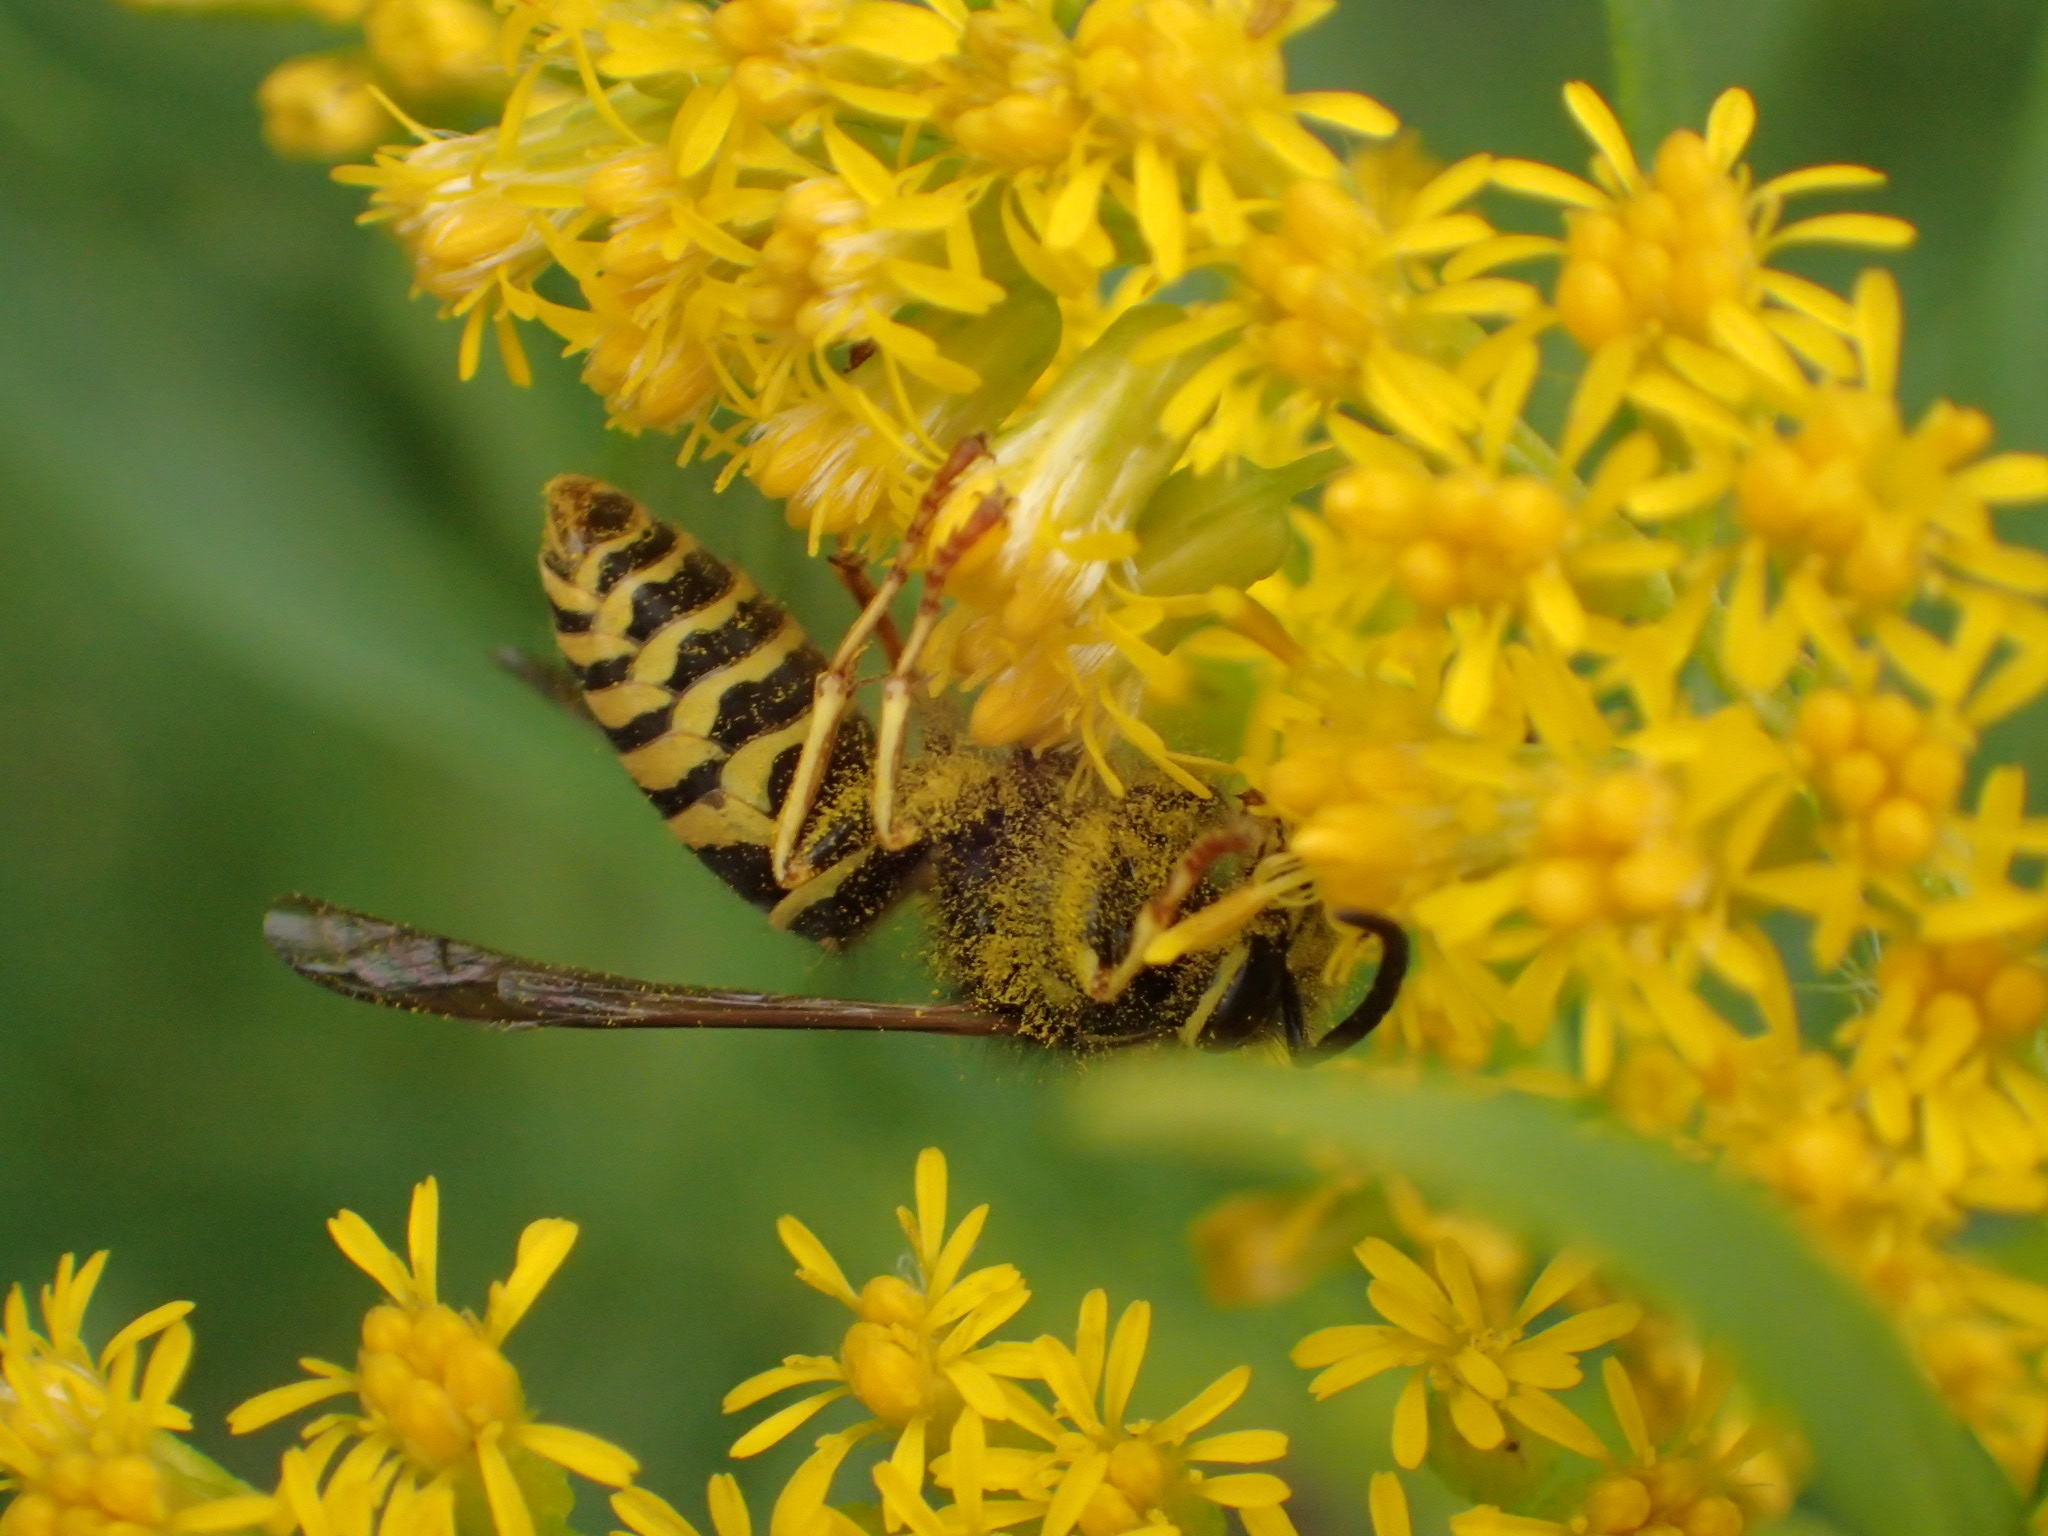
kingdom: Animalia
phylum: Arthropoda
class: Insecta
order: Hymenoptera
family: Vespidae
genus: Vespula
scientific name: Vespula acadica
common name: Forest yellowjacket
